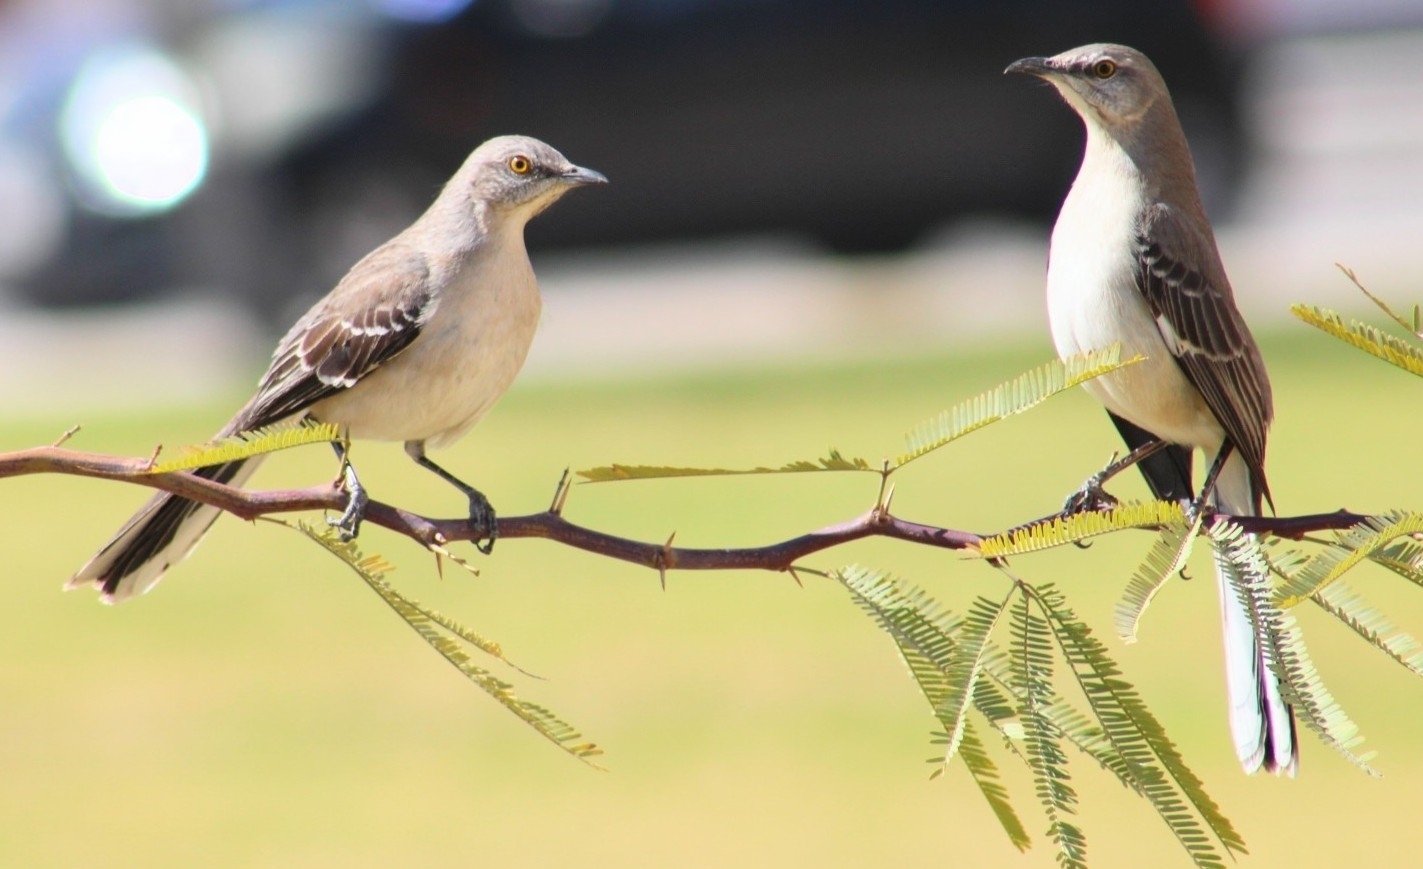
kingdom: Animalia
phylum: Chordata
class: Aves
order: Passeriformes
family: Mimidae
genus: Mimus
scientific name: Mimus polyglottos
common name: Northern mockingbird
